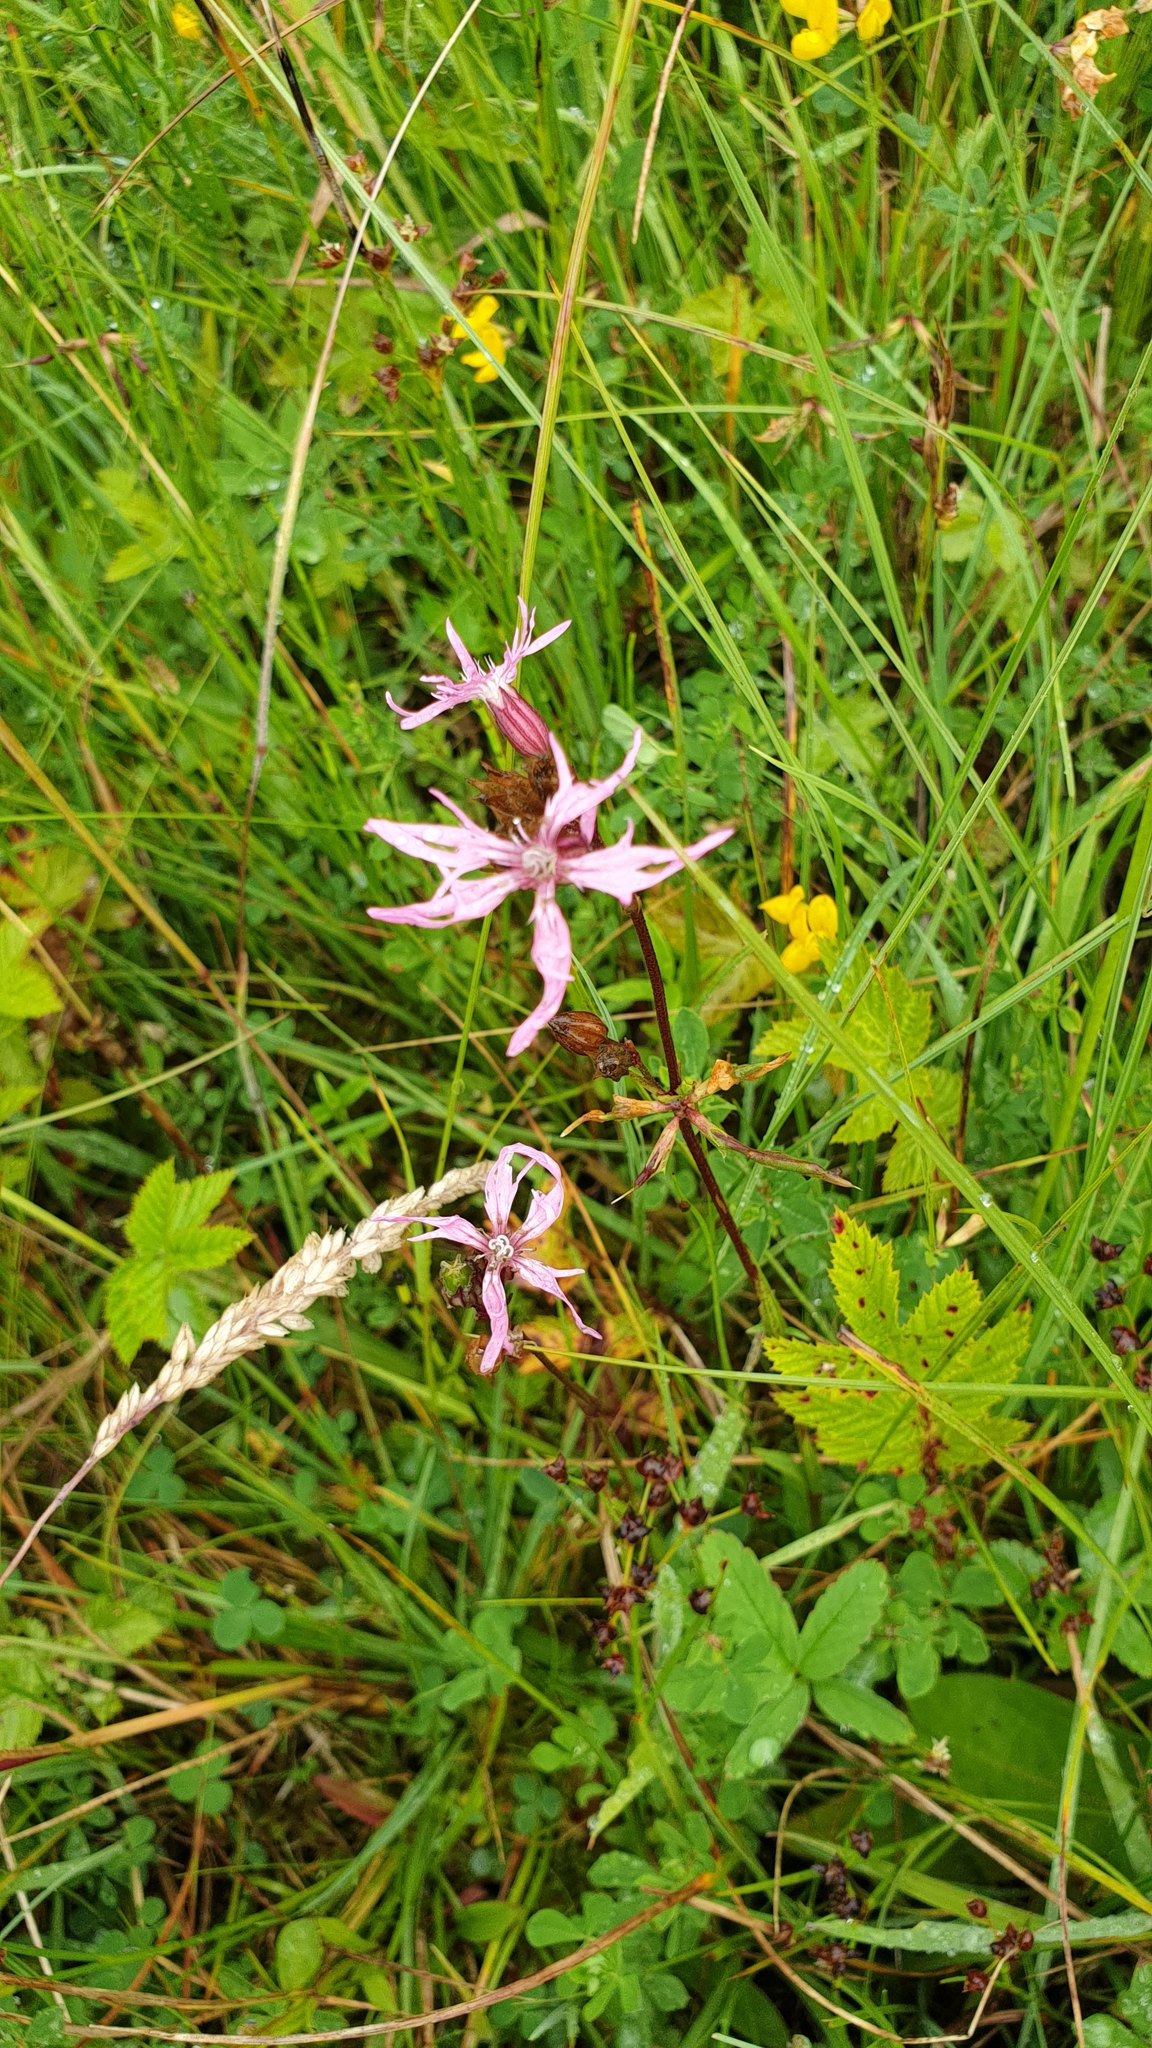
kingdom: Plantae
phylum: Tracheophyta
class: Magnoliopsida
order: Caryophyllales
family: Caryophyllaceae
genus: Silene
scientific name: Silene flos-cuculi
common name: Ragged-robin
